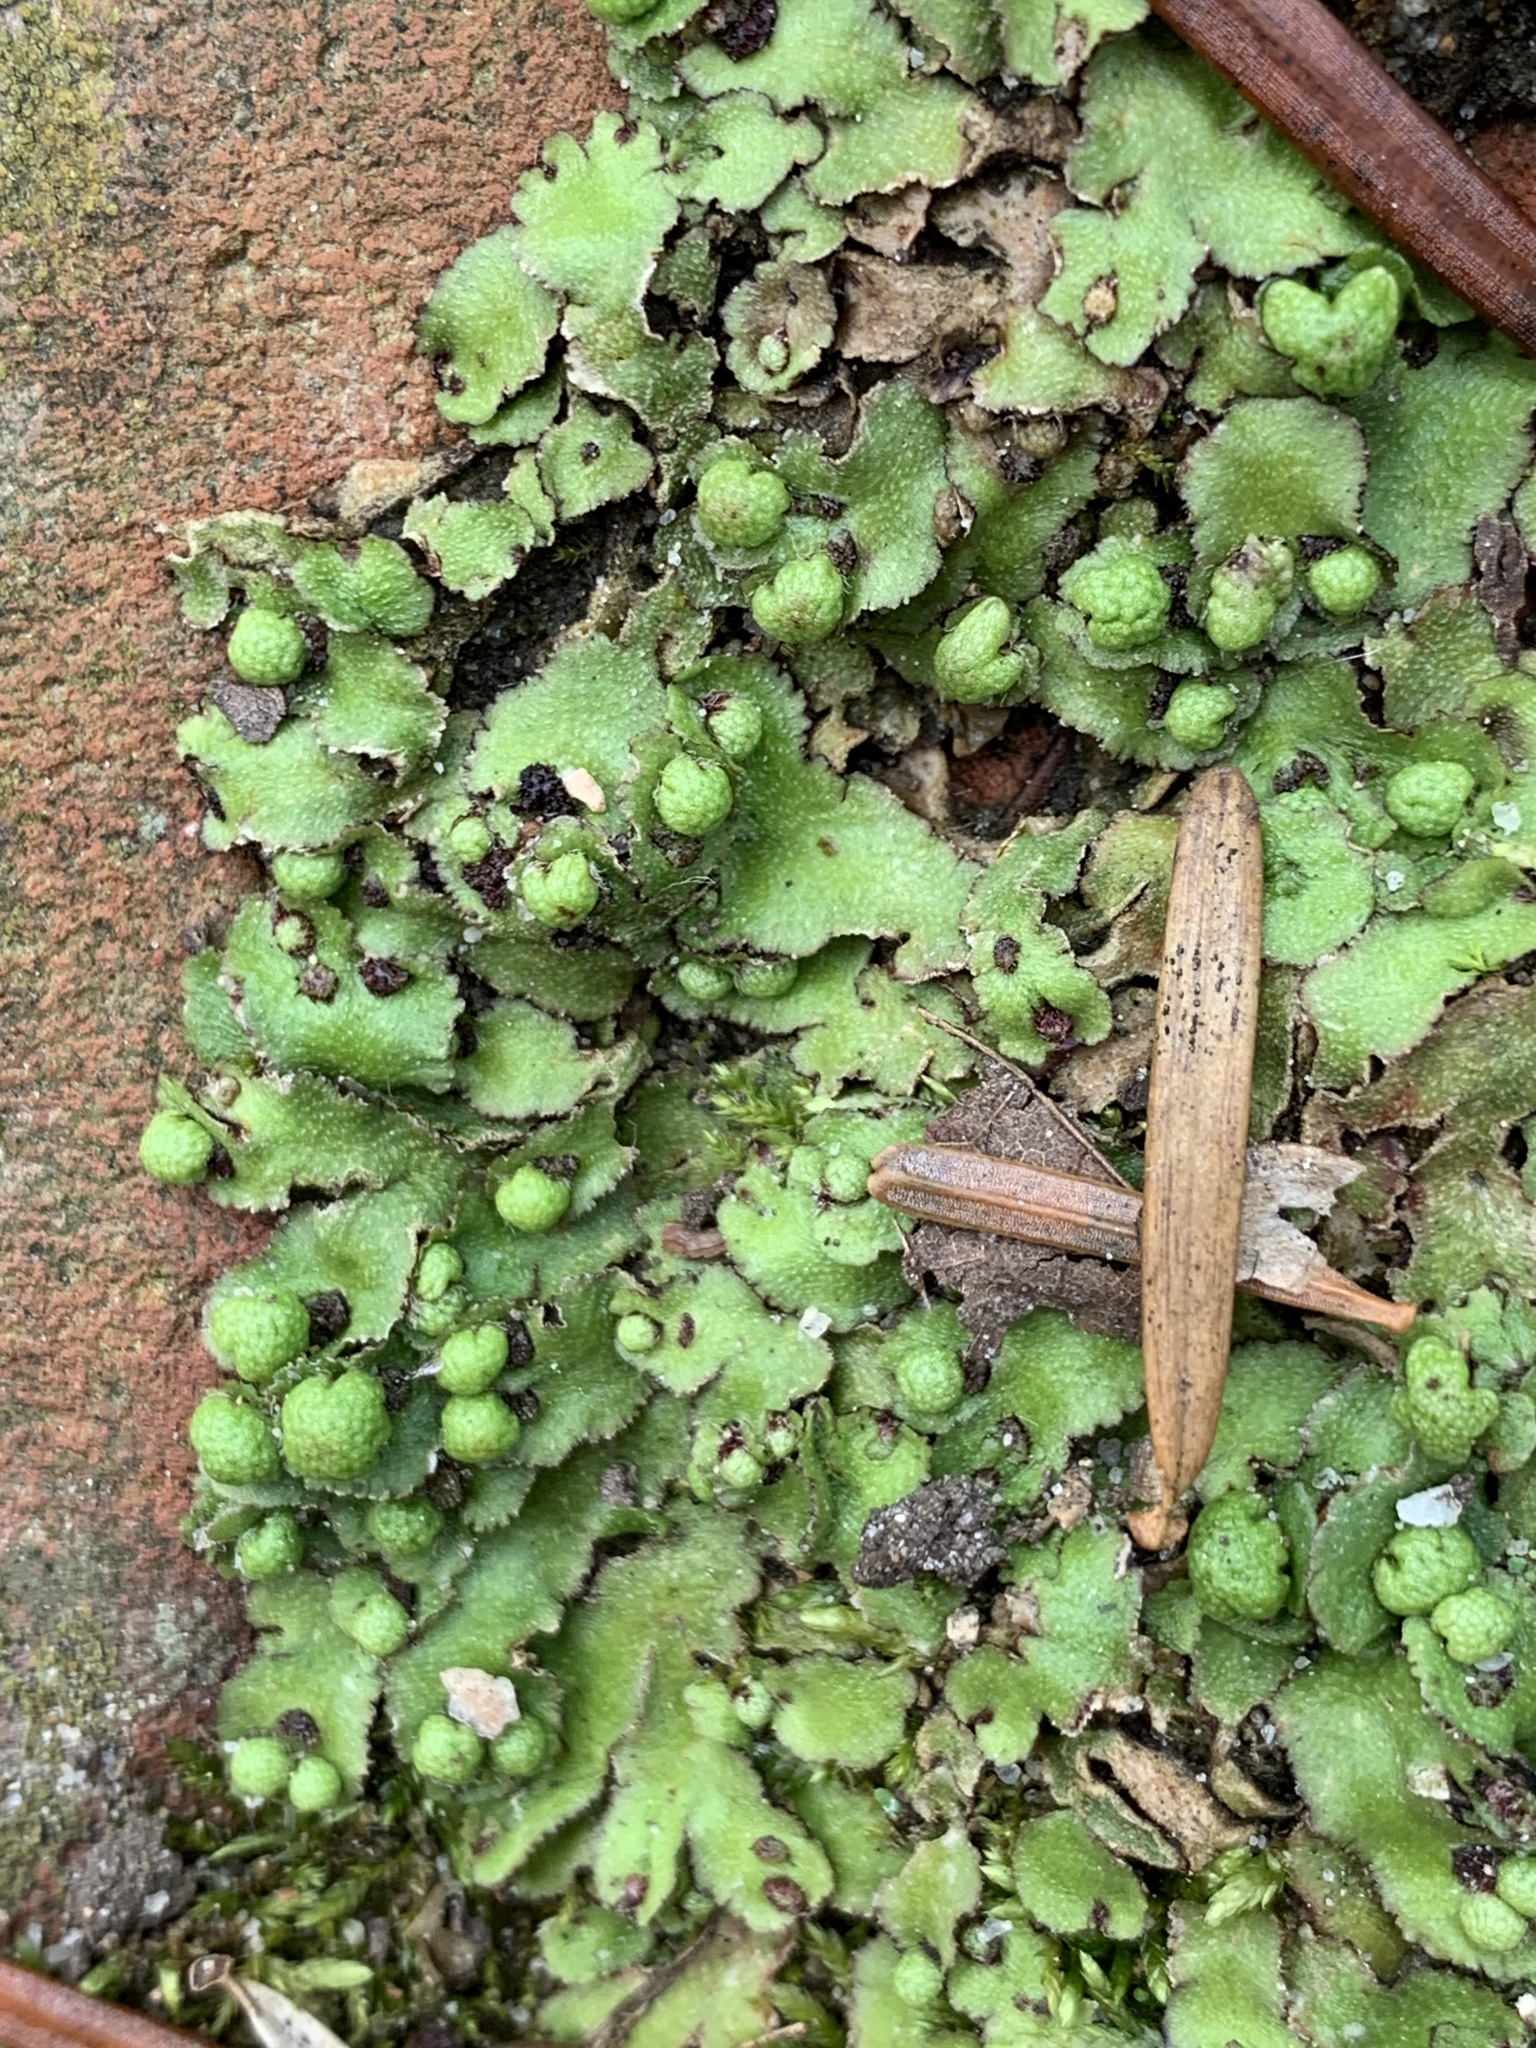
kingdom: Plantae
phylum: Marchantiophyta
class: Marchantiopsida
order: Marchantiales
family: Aytoniaceae
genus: Reboulia
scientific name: Reboulia hemisphaerica
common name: Purple-margined liverwort
